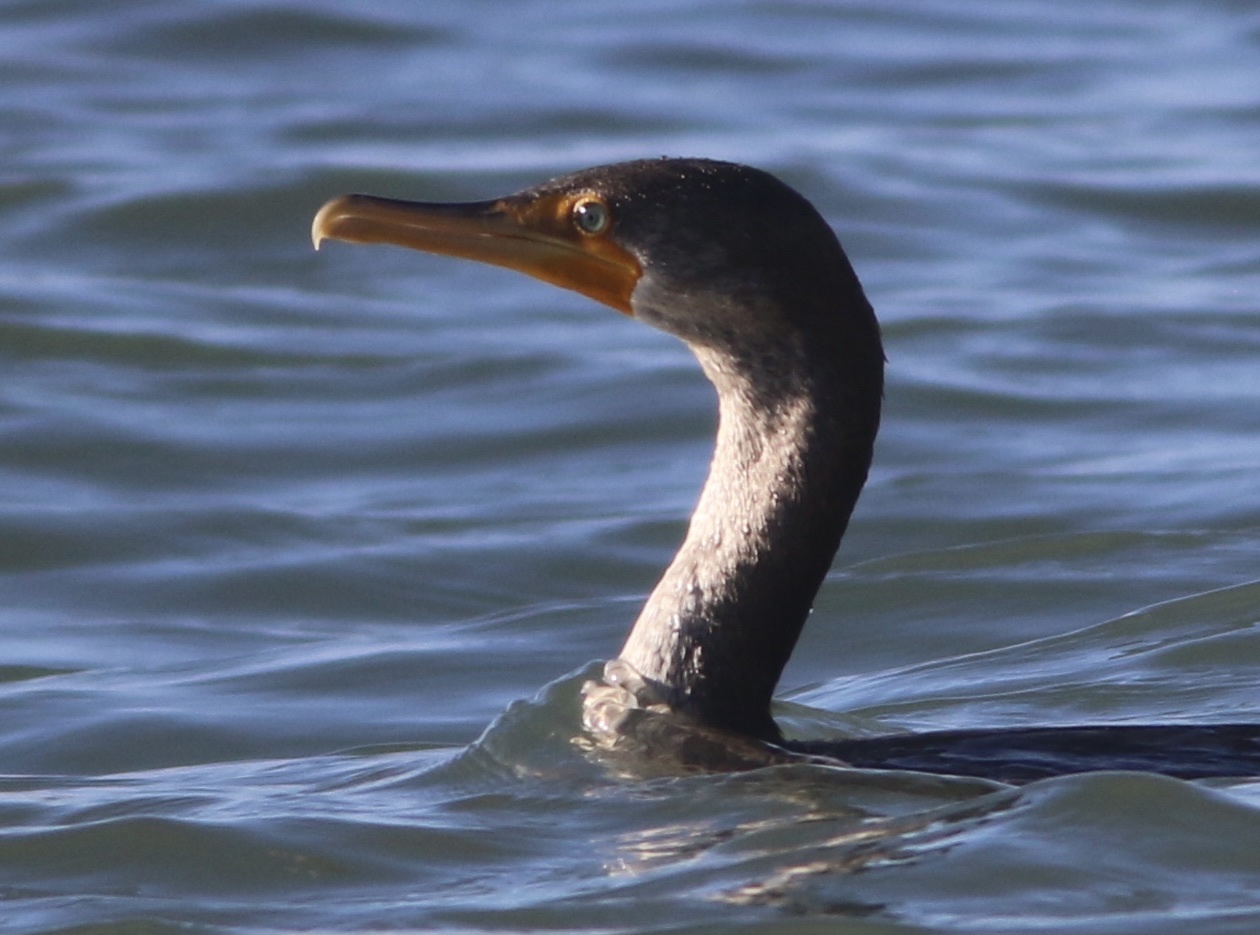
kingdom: Animalia
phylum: Chordata
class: Aves
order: Suliformes
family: Phalacrocoracidae
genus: Phalacrocorax
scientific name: Phalacrocorax auritus
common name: Double-crested cormorant
